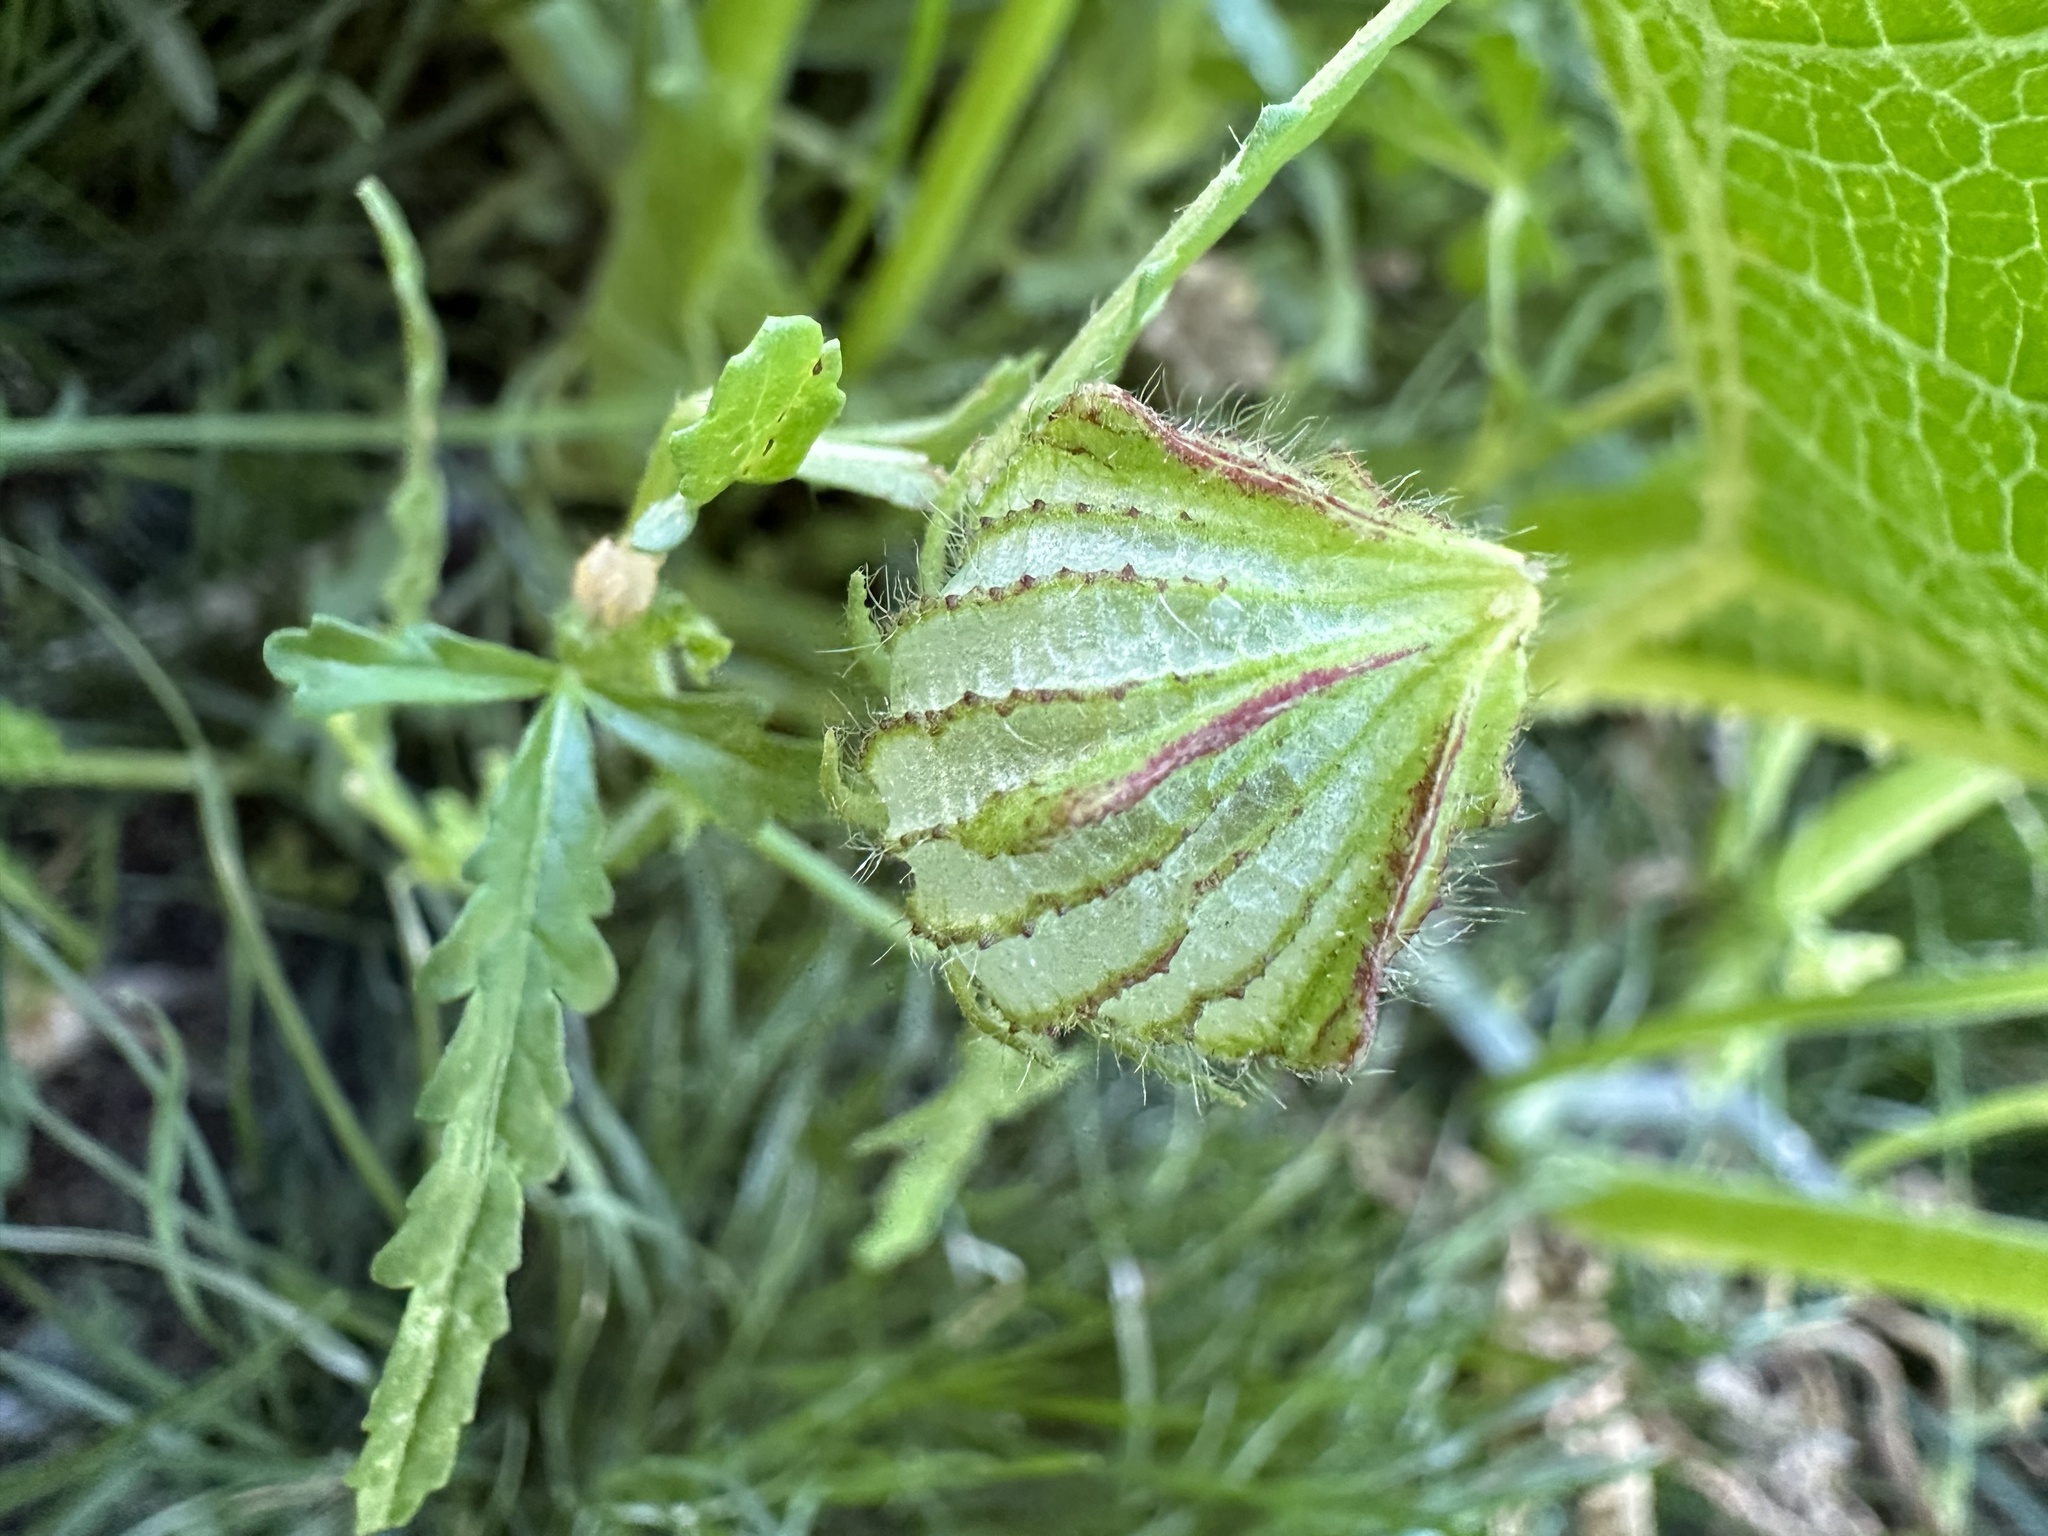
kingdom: Plantae
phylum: Tracheophyta
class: Magnoliopsida
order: Malvales
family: Malvaceae
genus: Hibiscus
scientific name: Hibiscus trionum
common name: Bladder ketmia
